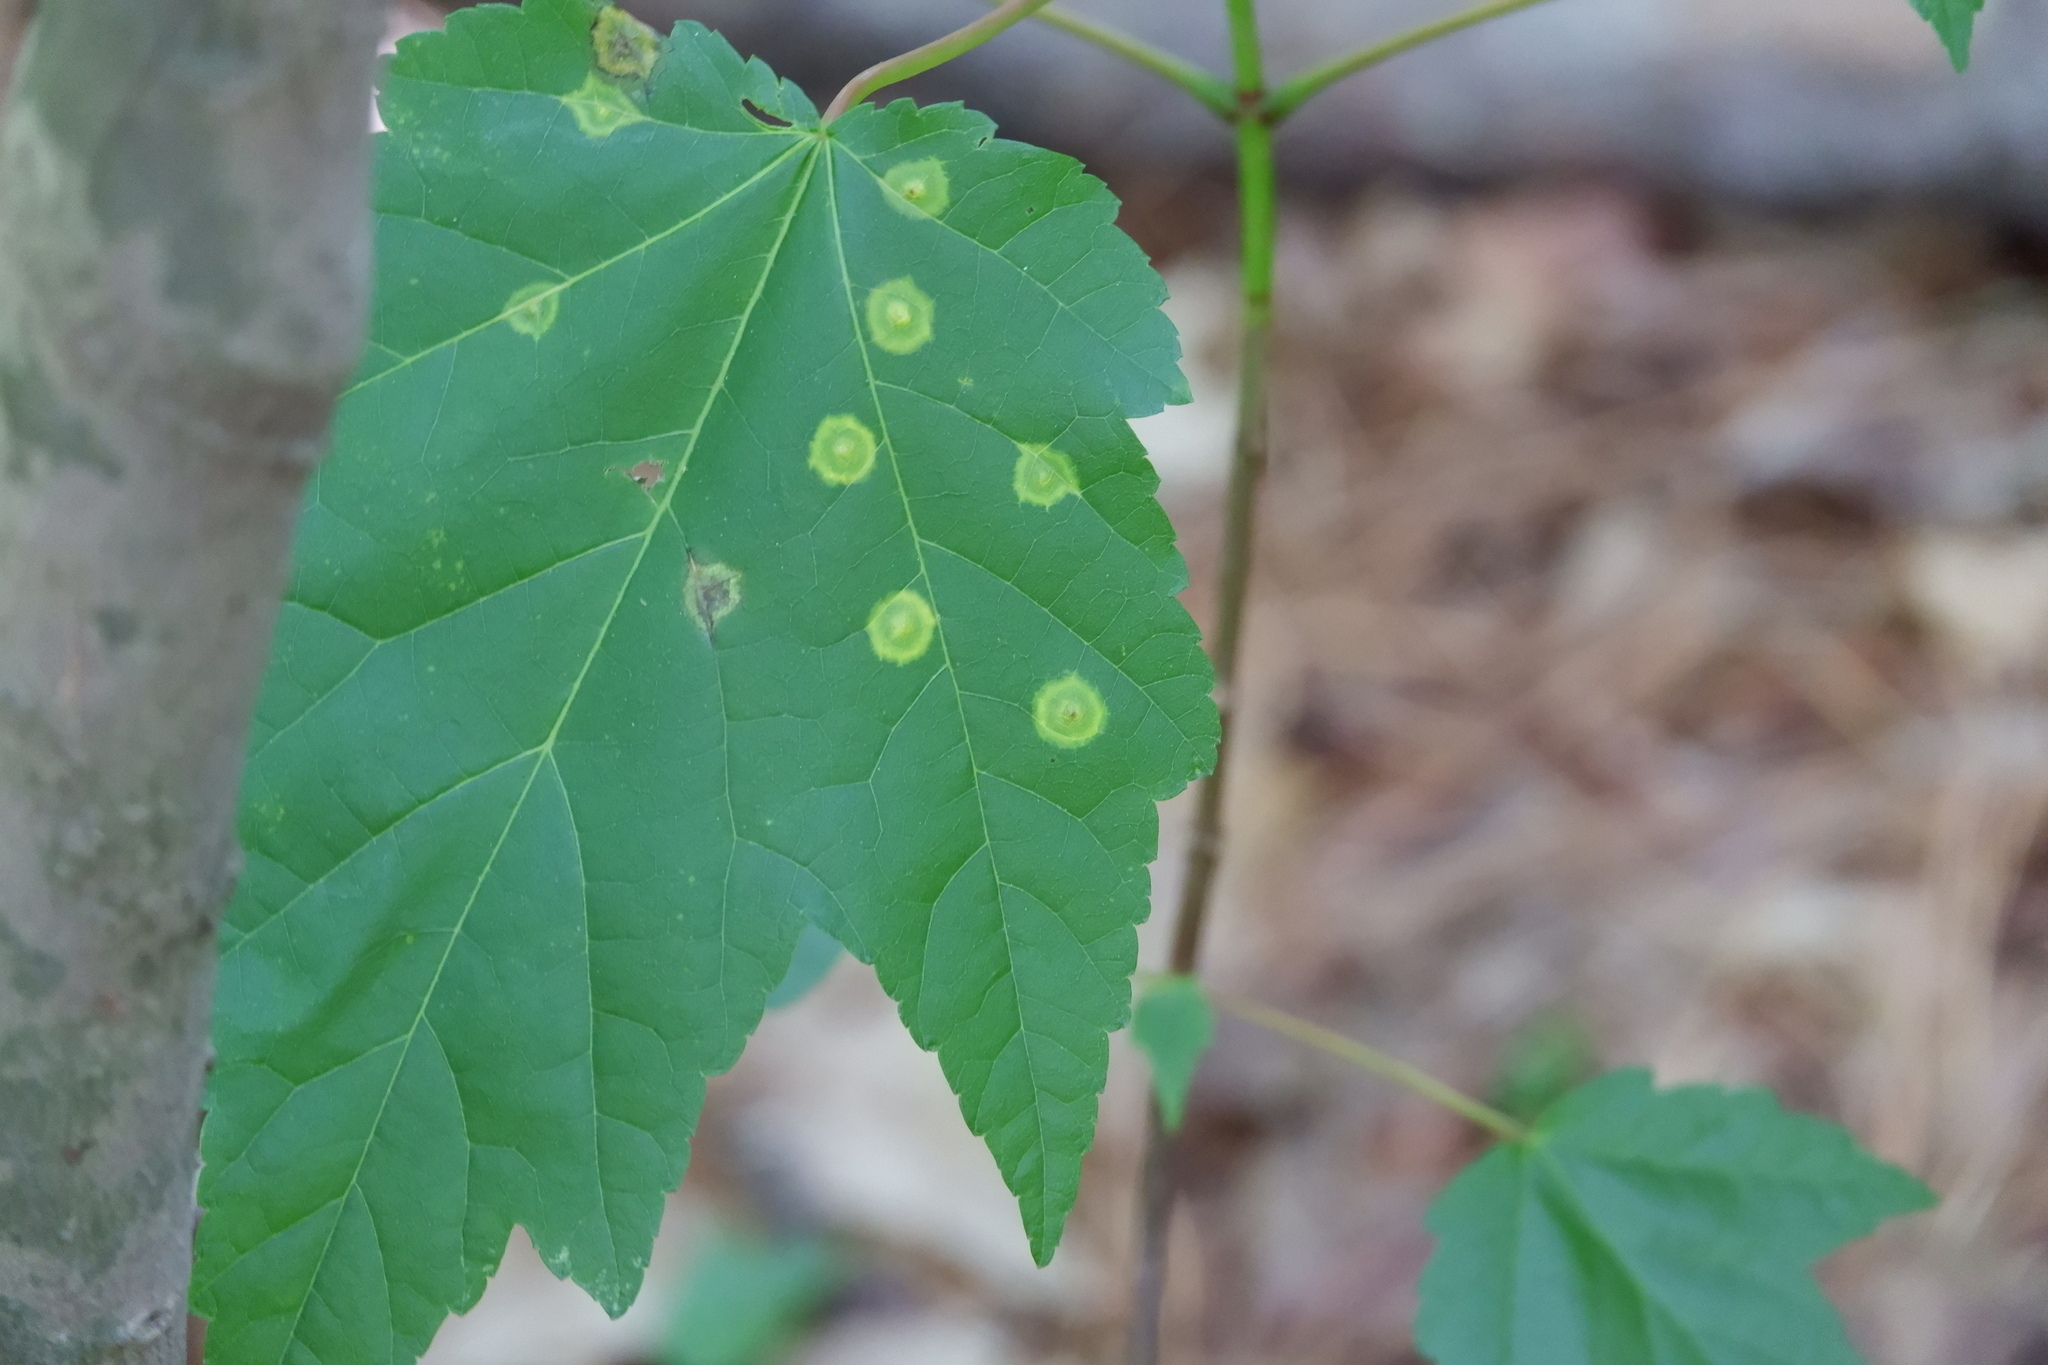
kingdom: Animalia
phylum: Arthropoda
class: Insecta
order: Diptera
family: Cecidomyiidae
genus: Acericecis
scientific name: Acericecis ocellaris
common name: Ocellate gall midge
